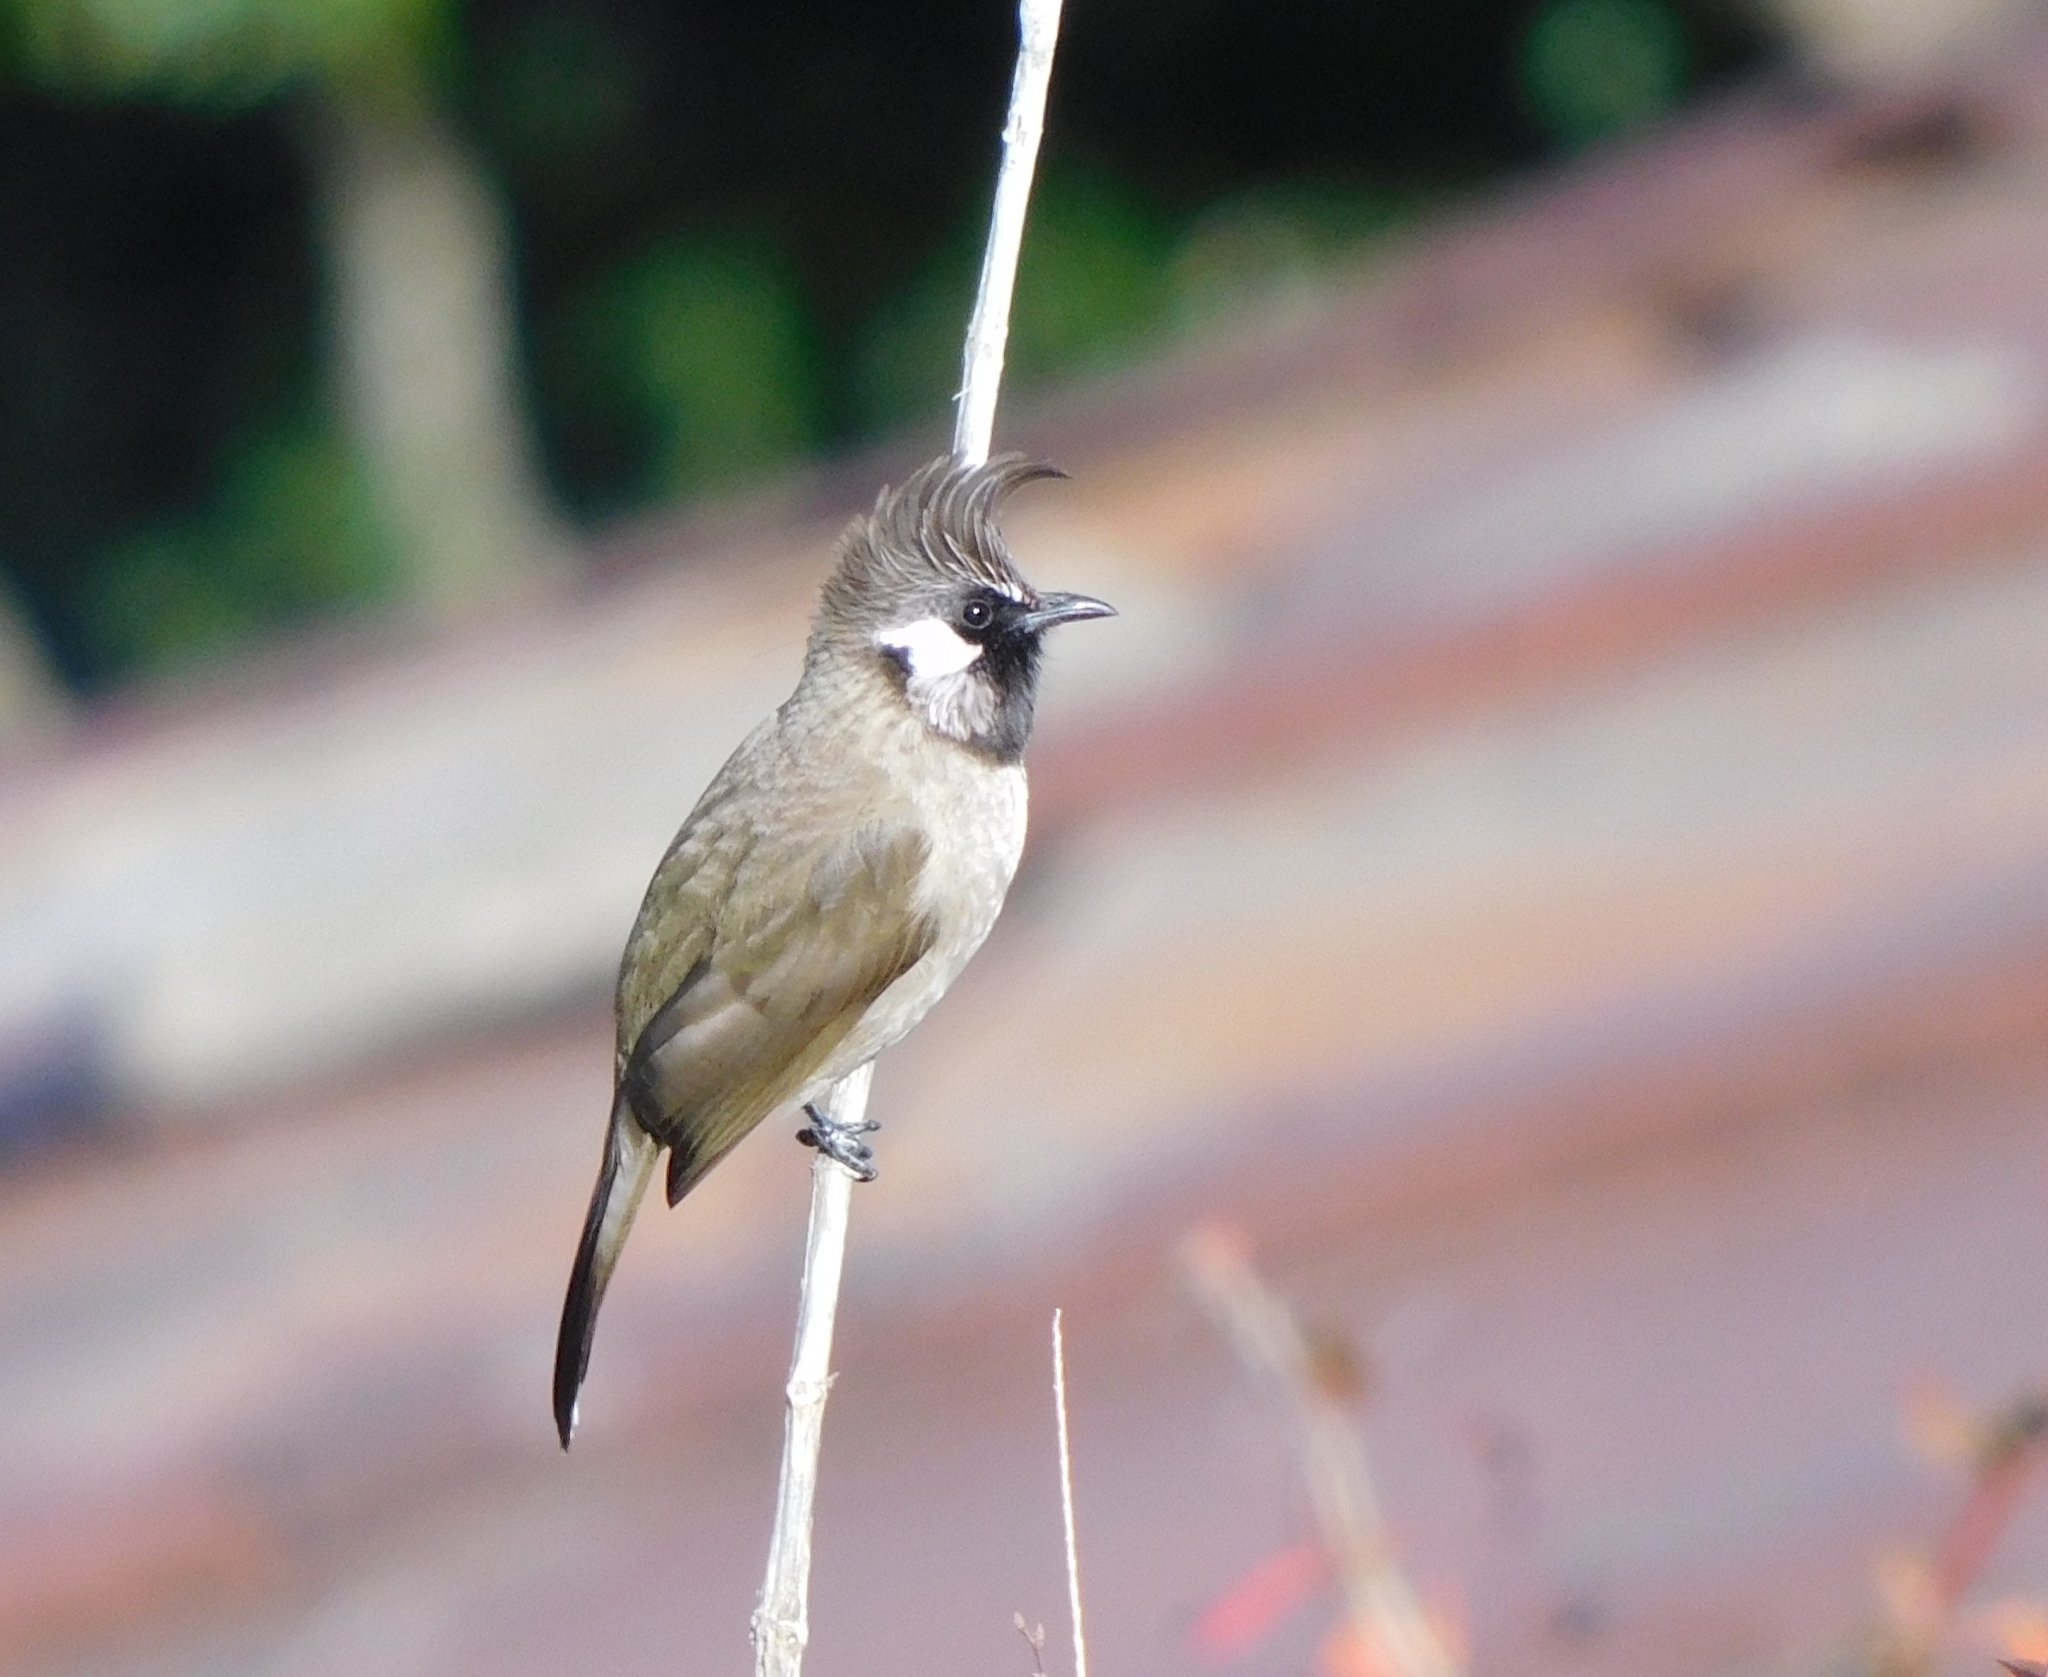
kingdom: Animalia
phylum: Chordata
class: Aves
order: Passeriformes
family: Pycnonotidae
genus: Pycnonotus
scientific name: Pycnonotus leucogenys
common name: Himalayan bulbul
